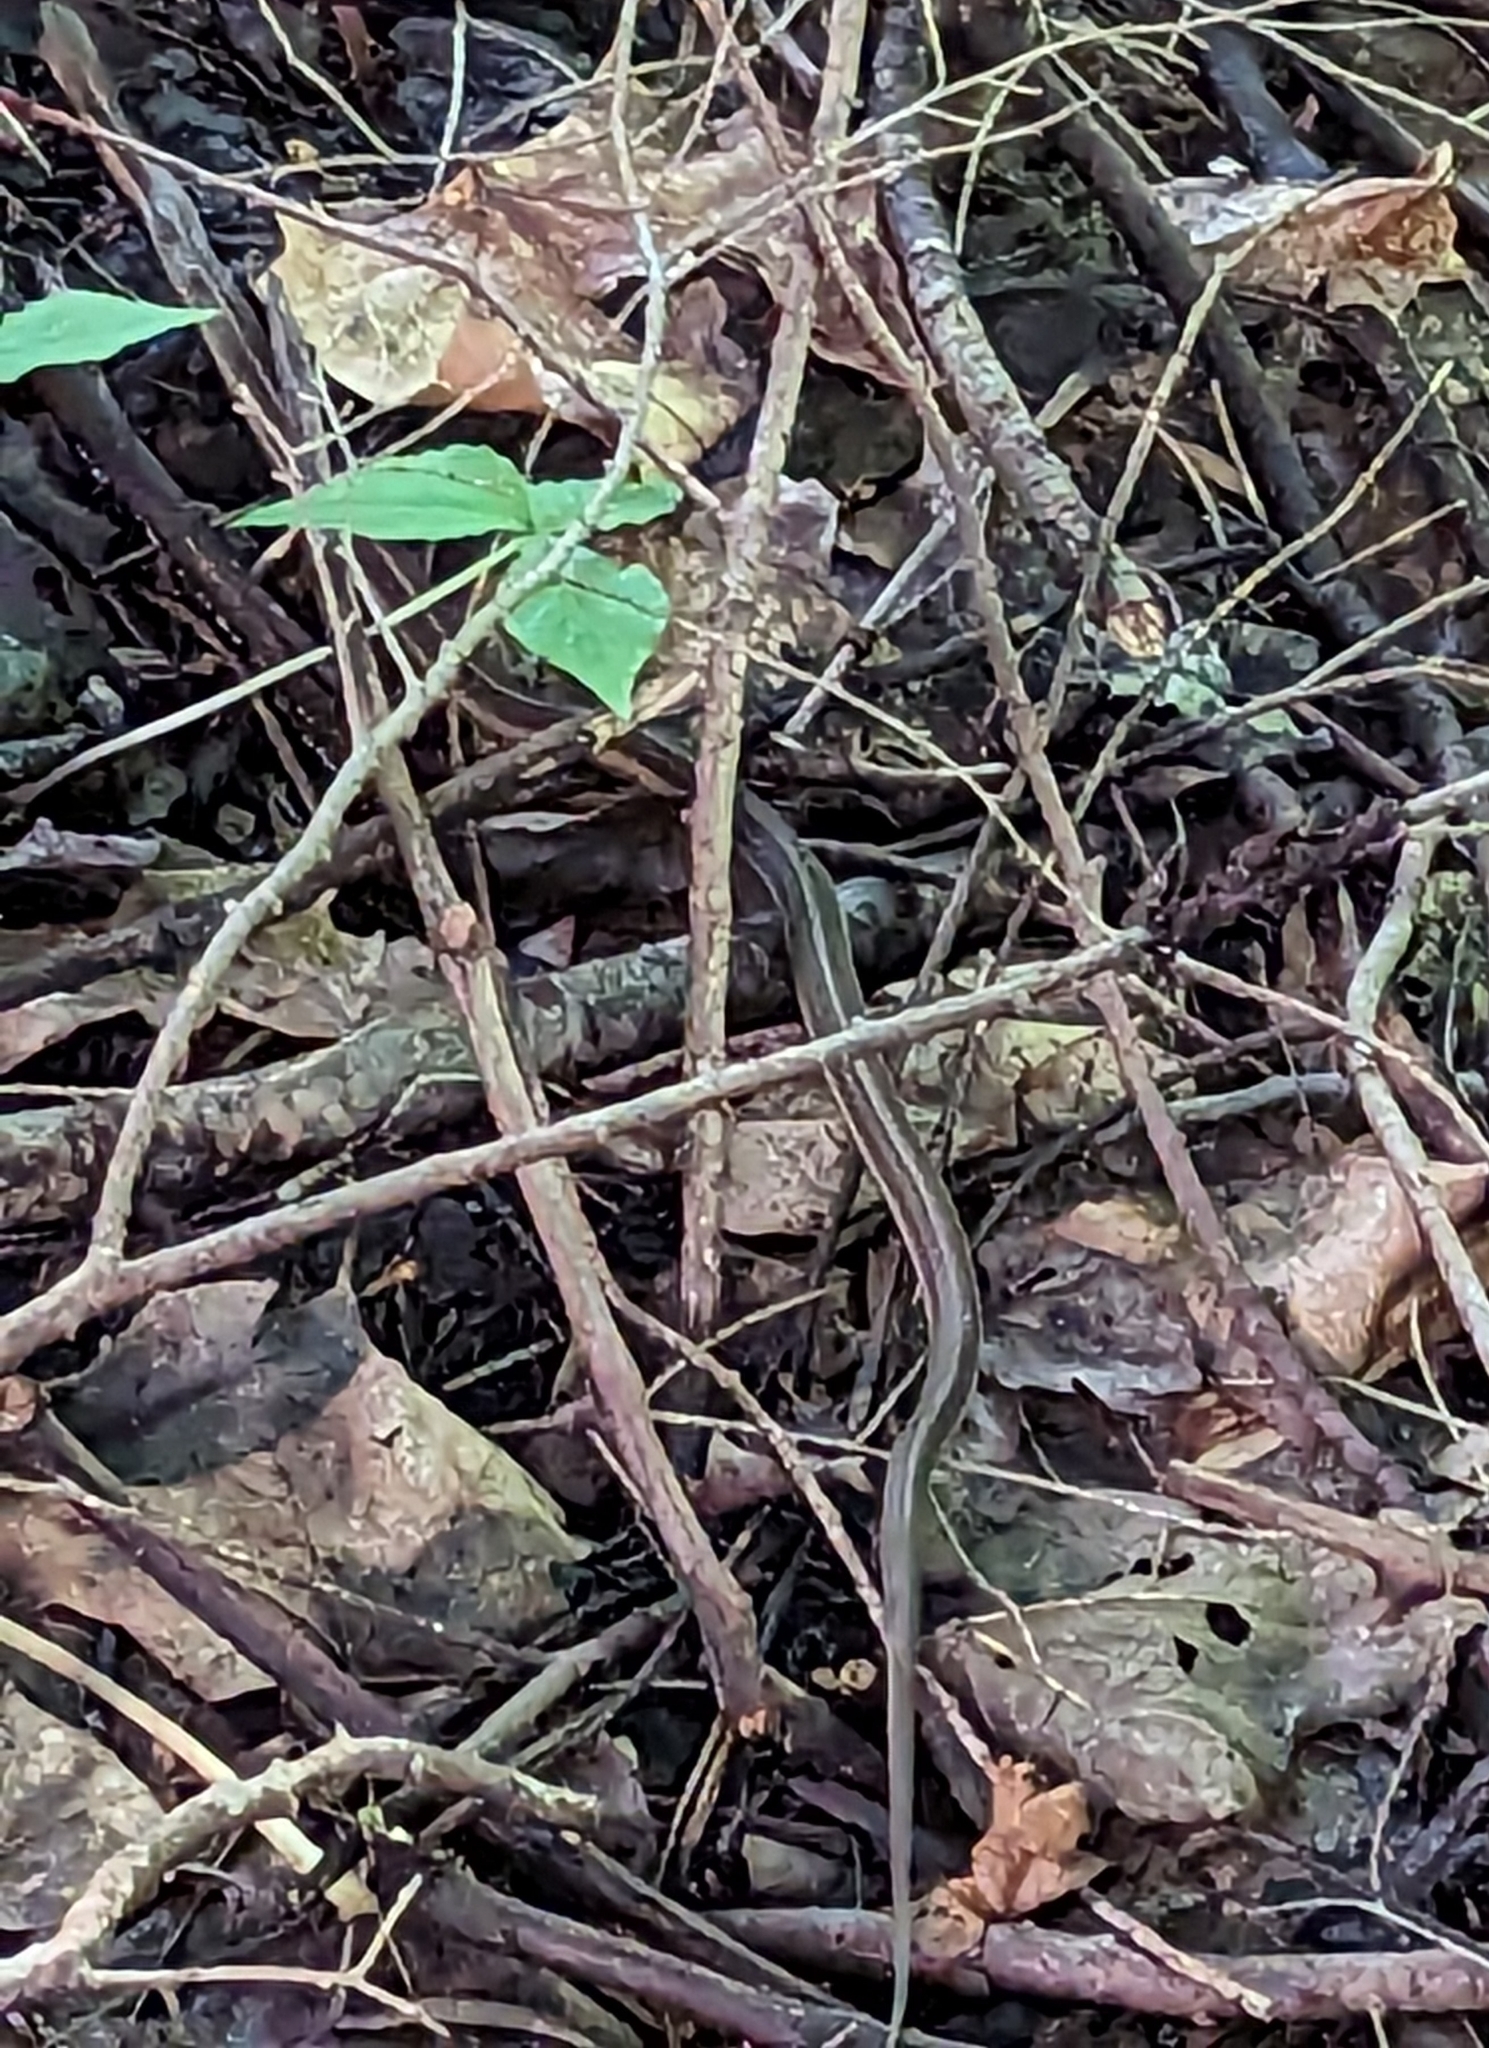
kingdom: Animalia
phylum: Chordata
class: Squamata
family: Colubridae
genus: Thamnophis
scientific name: Thamnophis sirtalis
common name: Common garter snake
